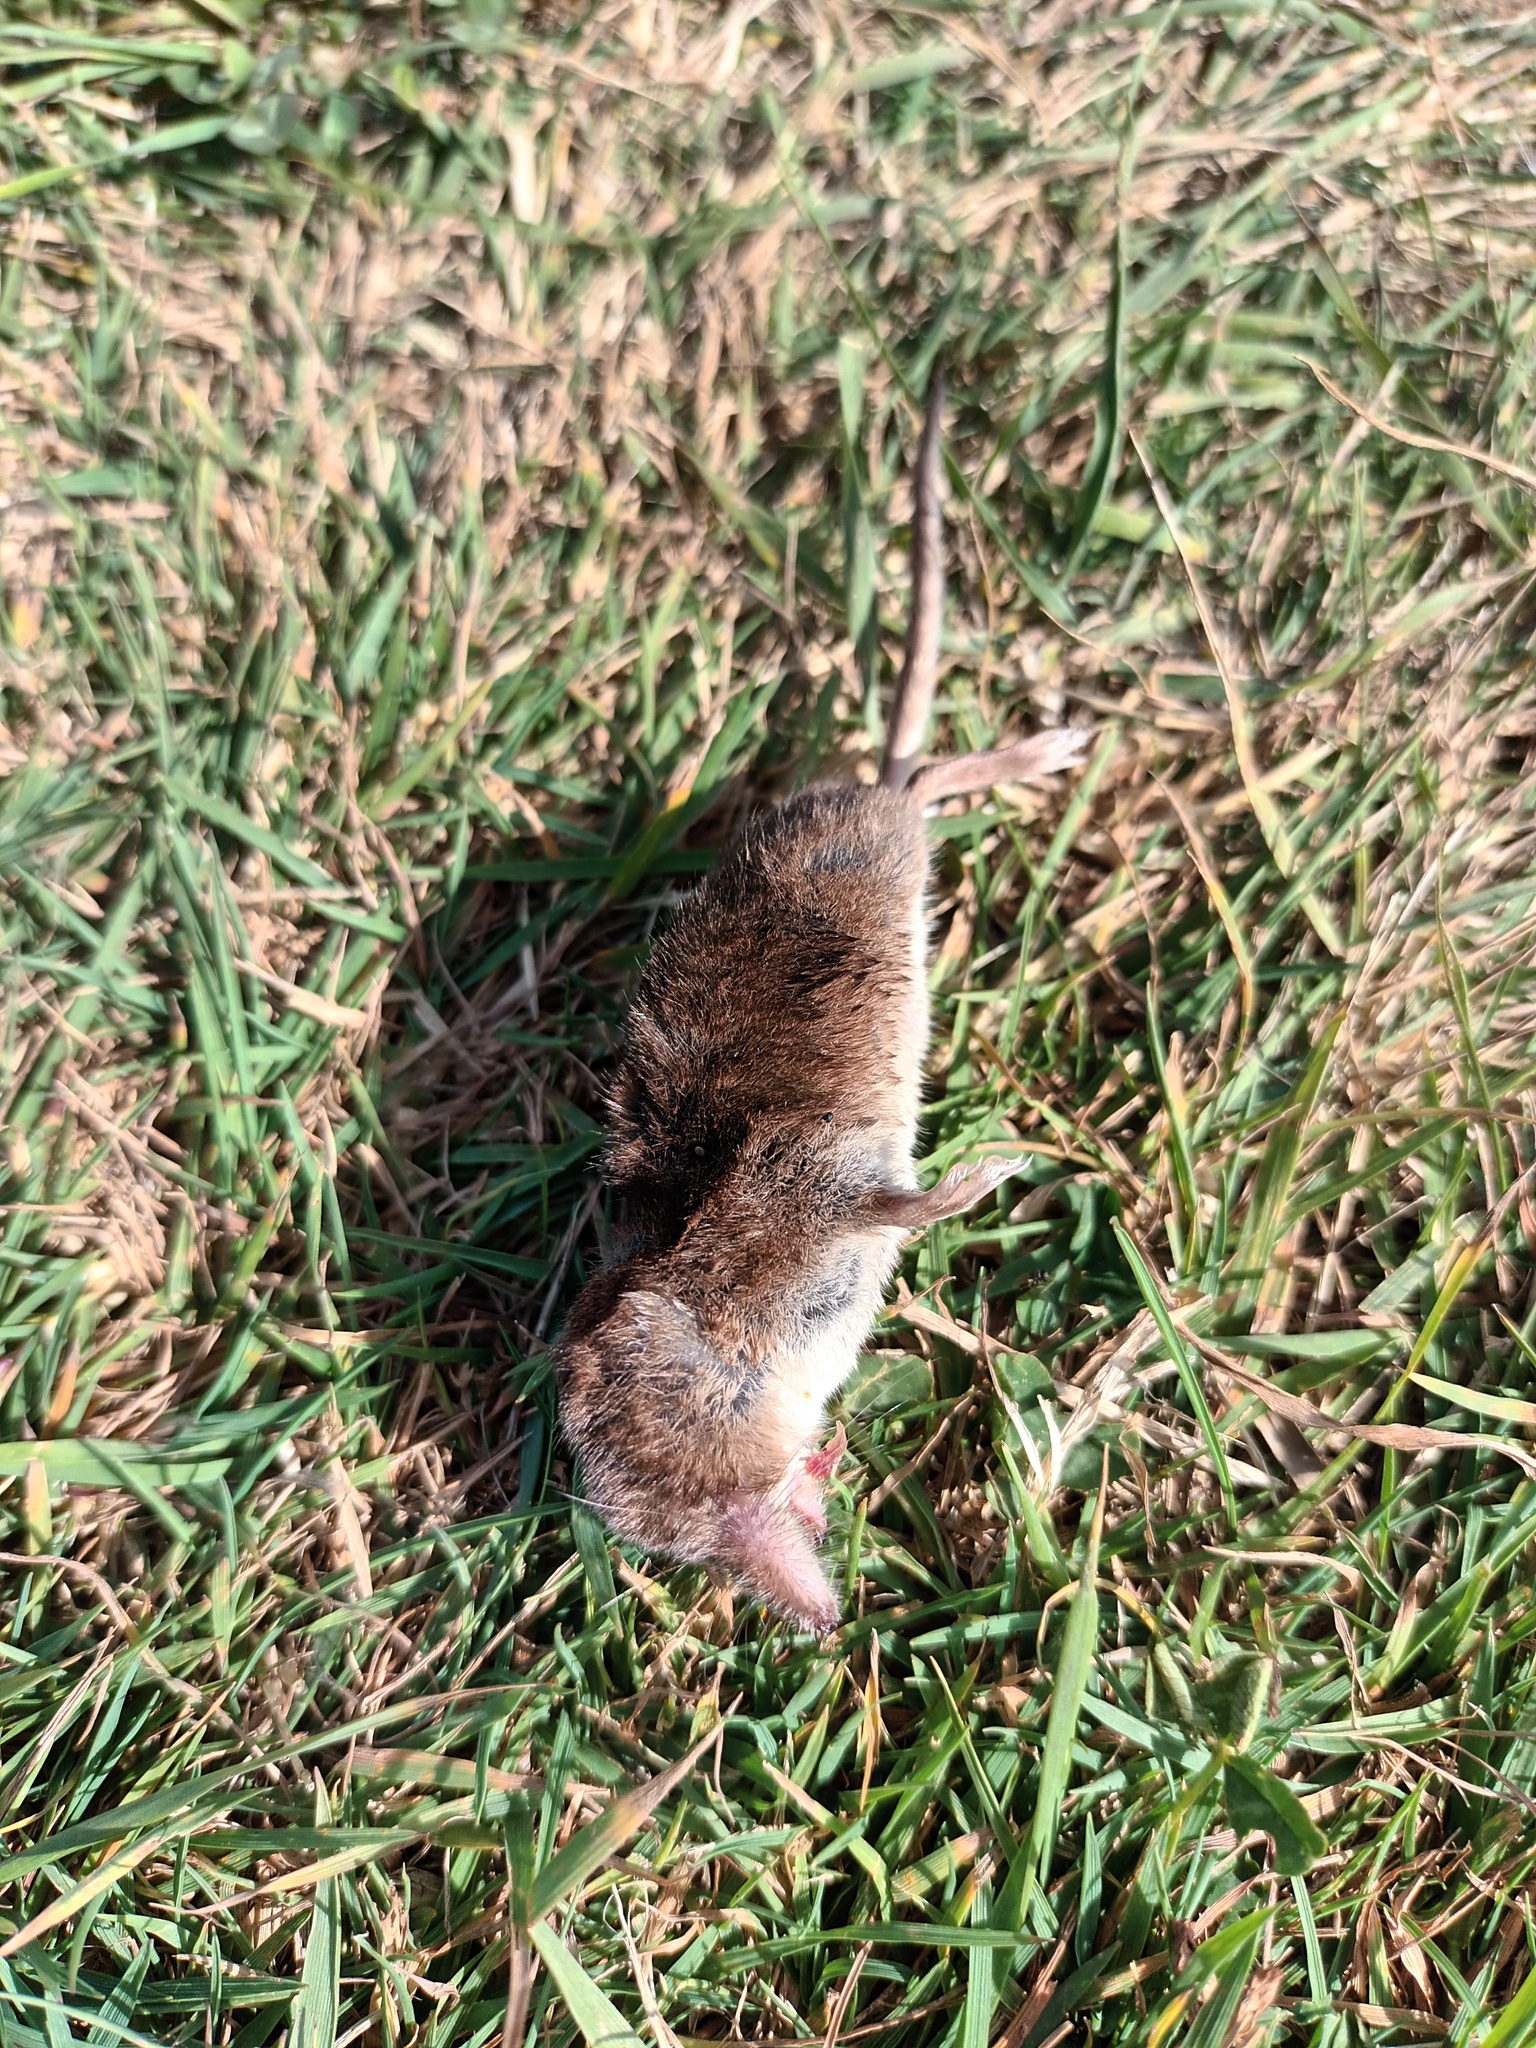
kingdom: Animalia
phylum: Chordata
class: Mammalia
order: Soricomorpha
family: Soricidae
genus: Sorex
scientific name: Sorex araneus
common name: Common shrew
